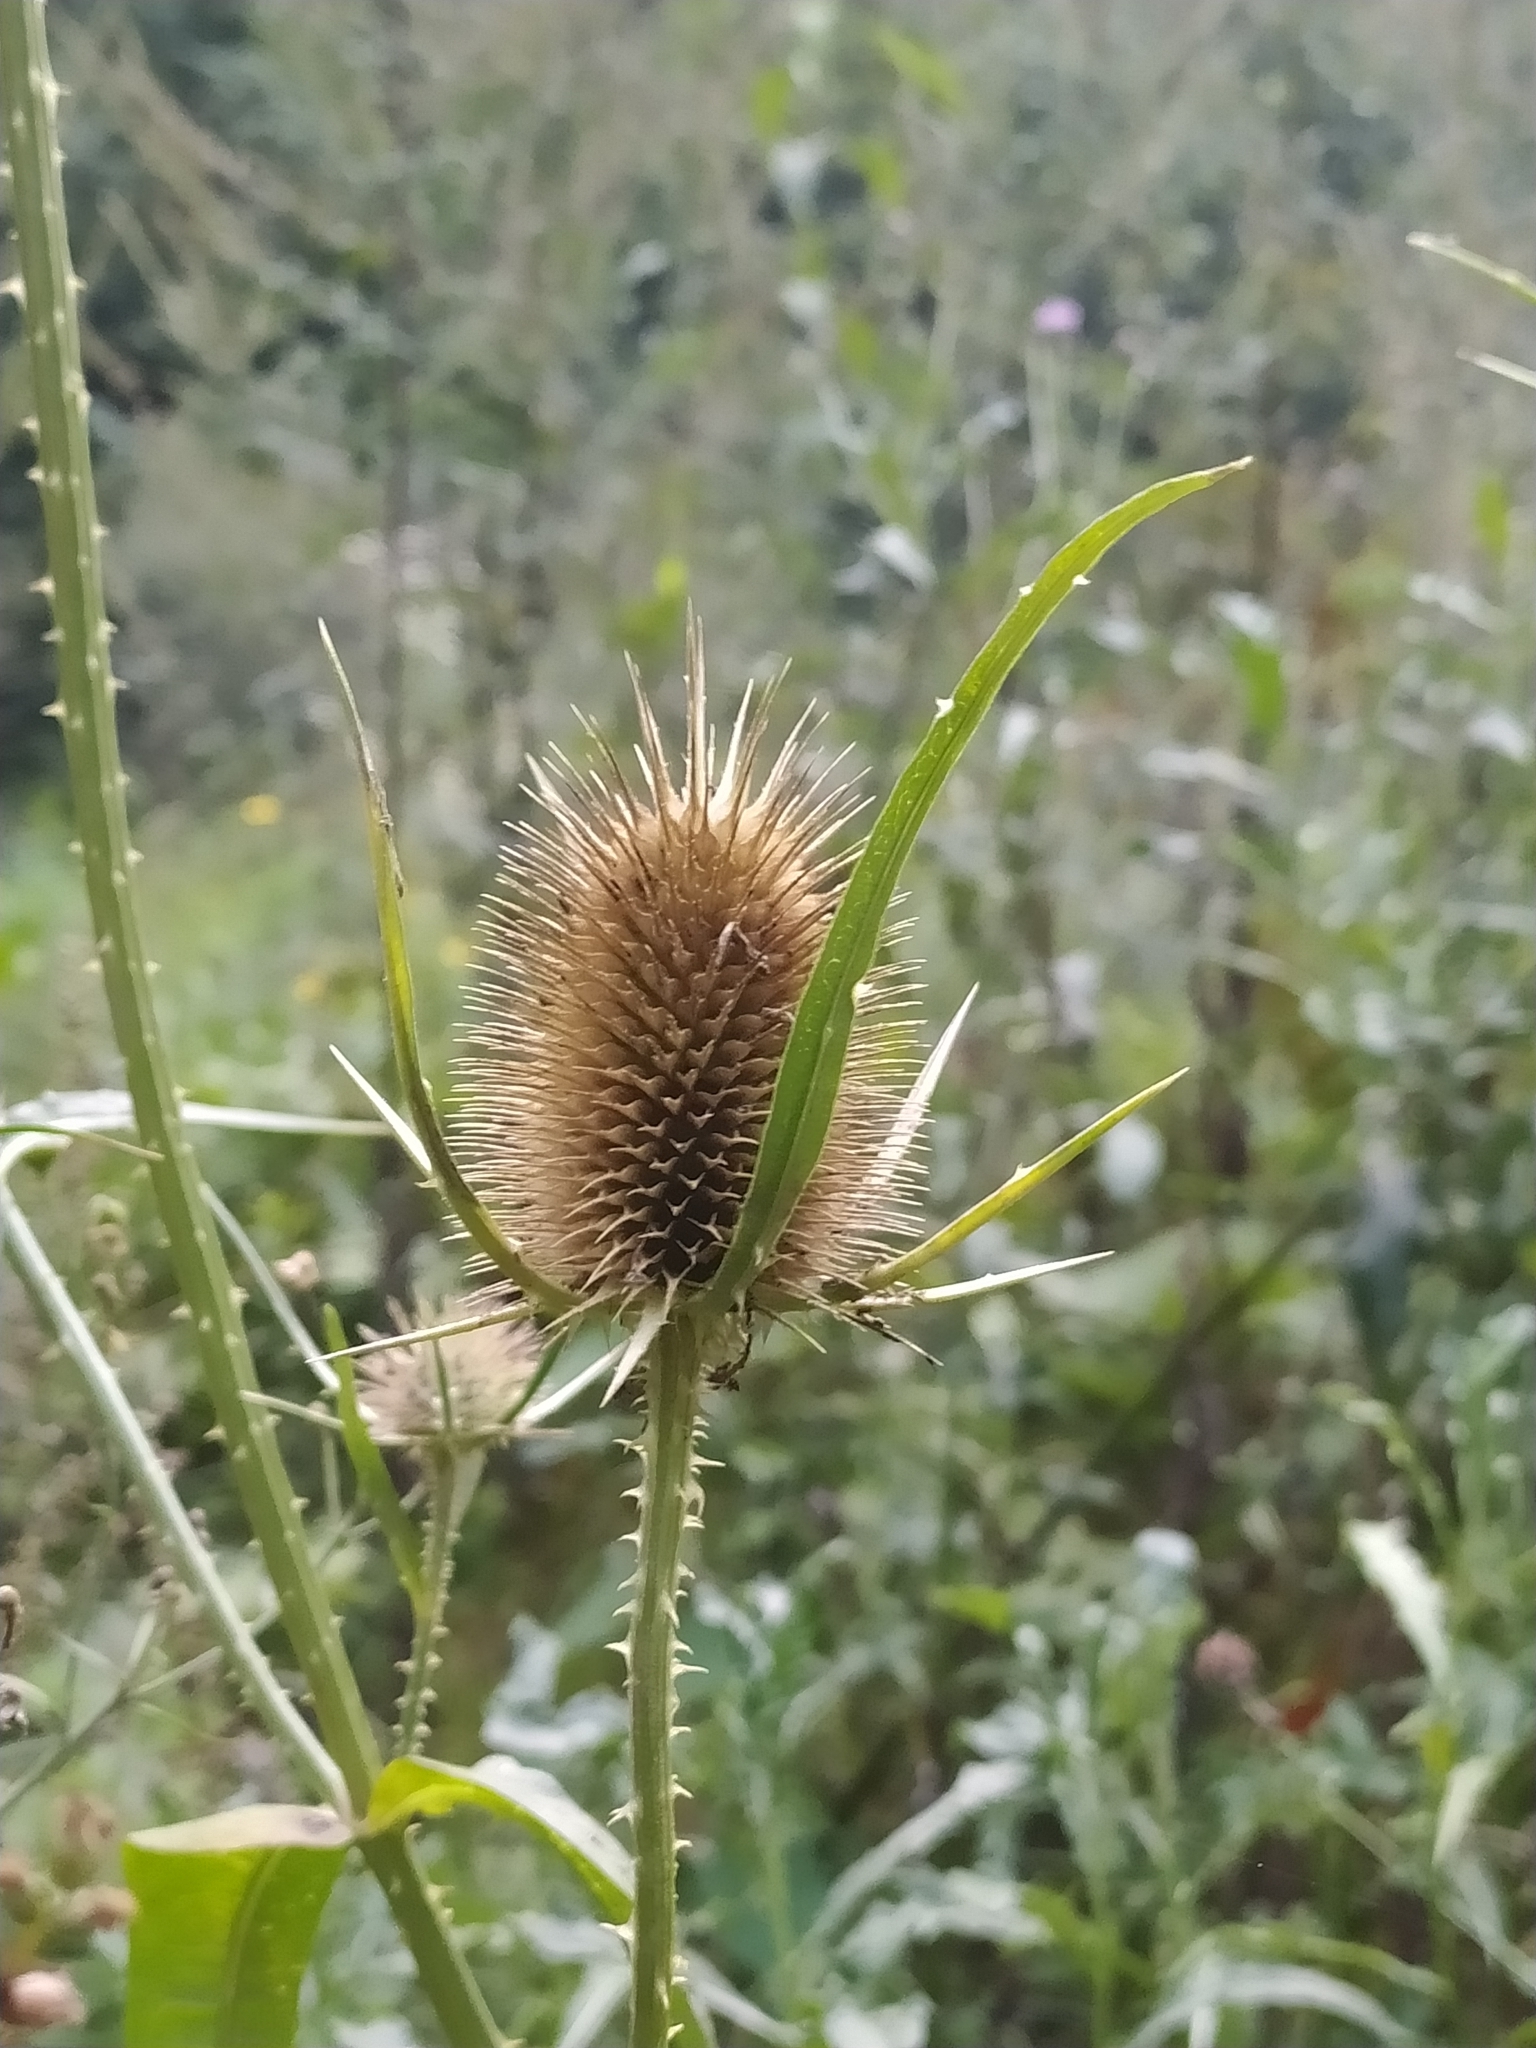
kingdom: Plantae
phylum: Tracheophyta
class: Magnoliopsida
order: Dipsacales
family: Caprifoliaceae
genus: Dipsacus
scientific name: Dipsacus fullonum
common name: Teasel
